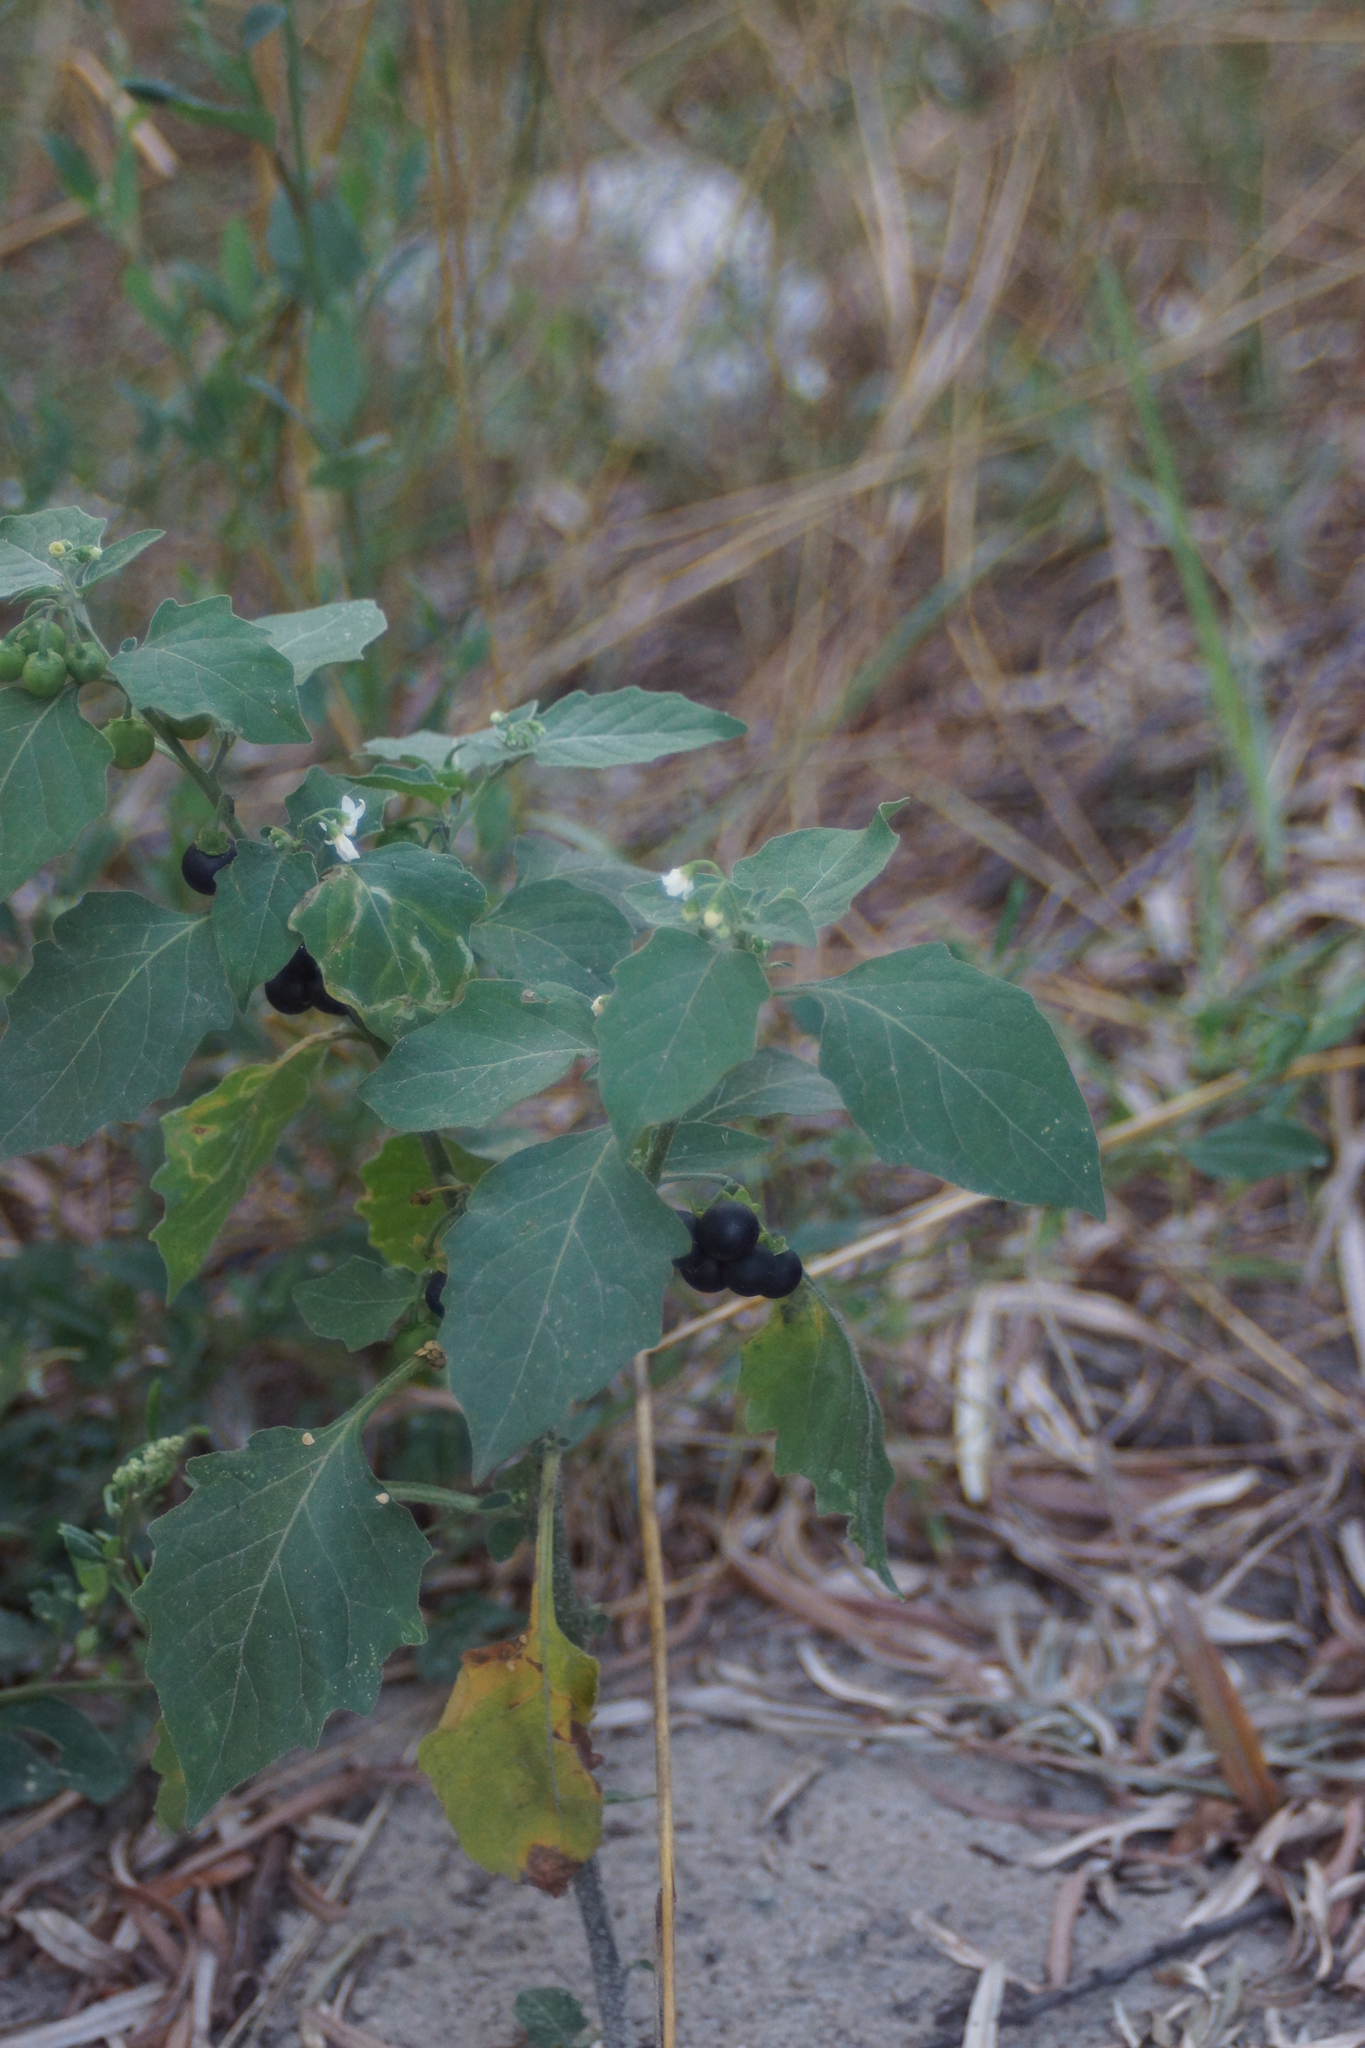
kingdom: Plantae
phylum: Tracheophyta
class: Magnoliopsida
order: Solanales
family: Solanaceae
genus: Solanum
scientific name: Solanum nigrum
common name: Black nightshade
